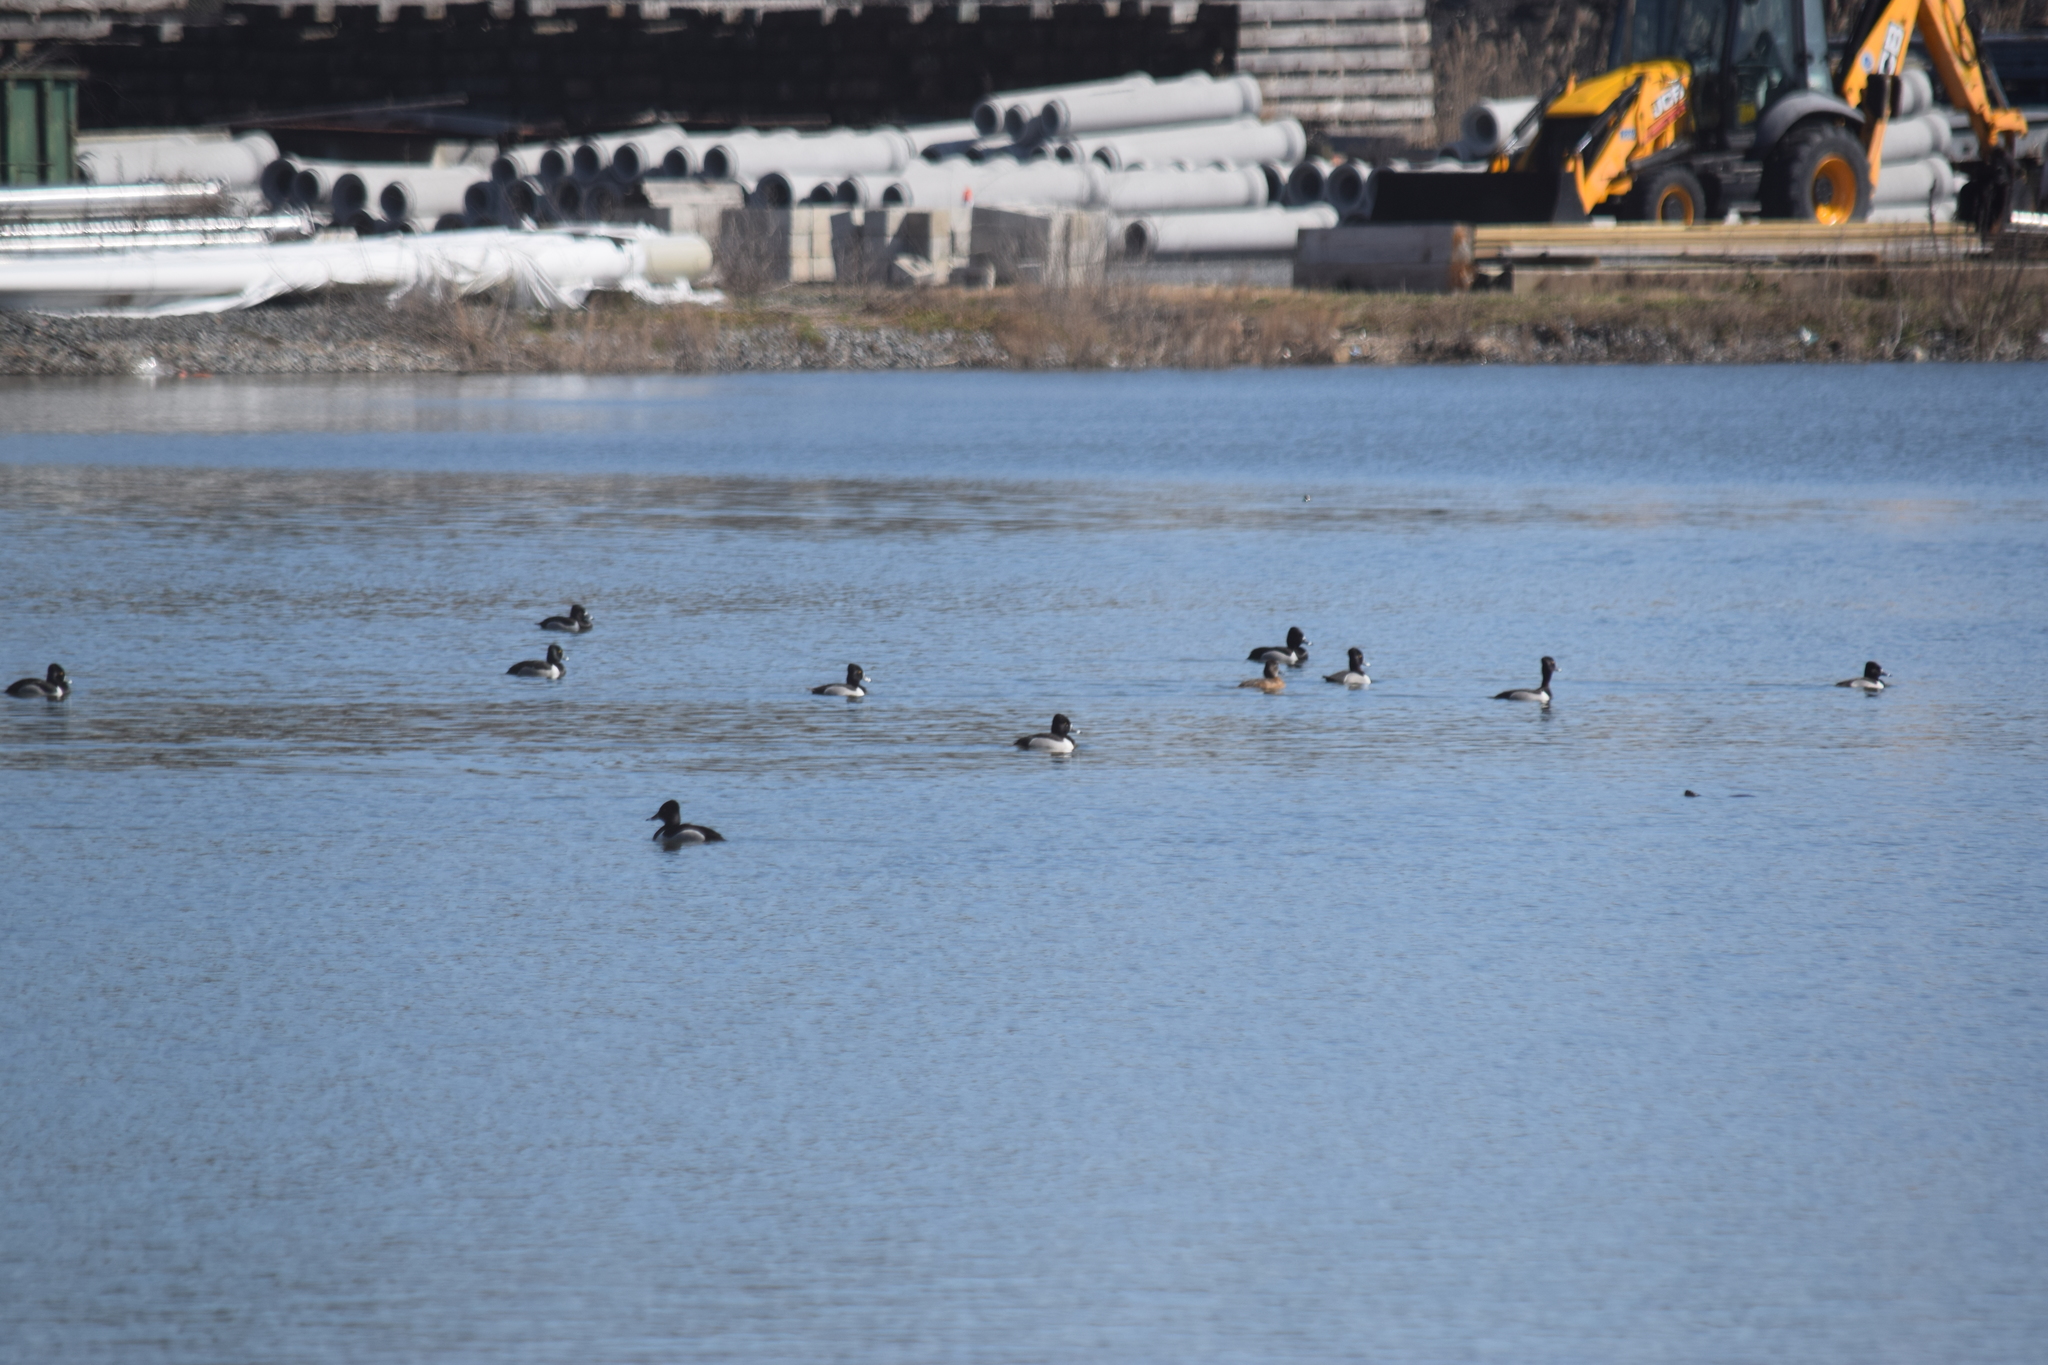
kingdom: Animalia
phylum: Chordata
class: Aves
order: Anseriformes
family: Anatidae
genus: Aythya
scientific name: Aythya collaris
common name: Ring-necked duck
